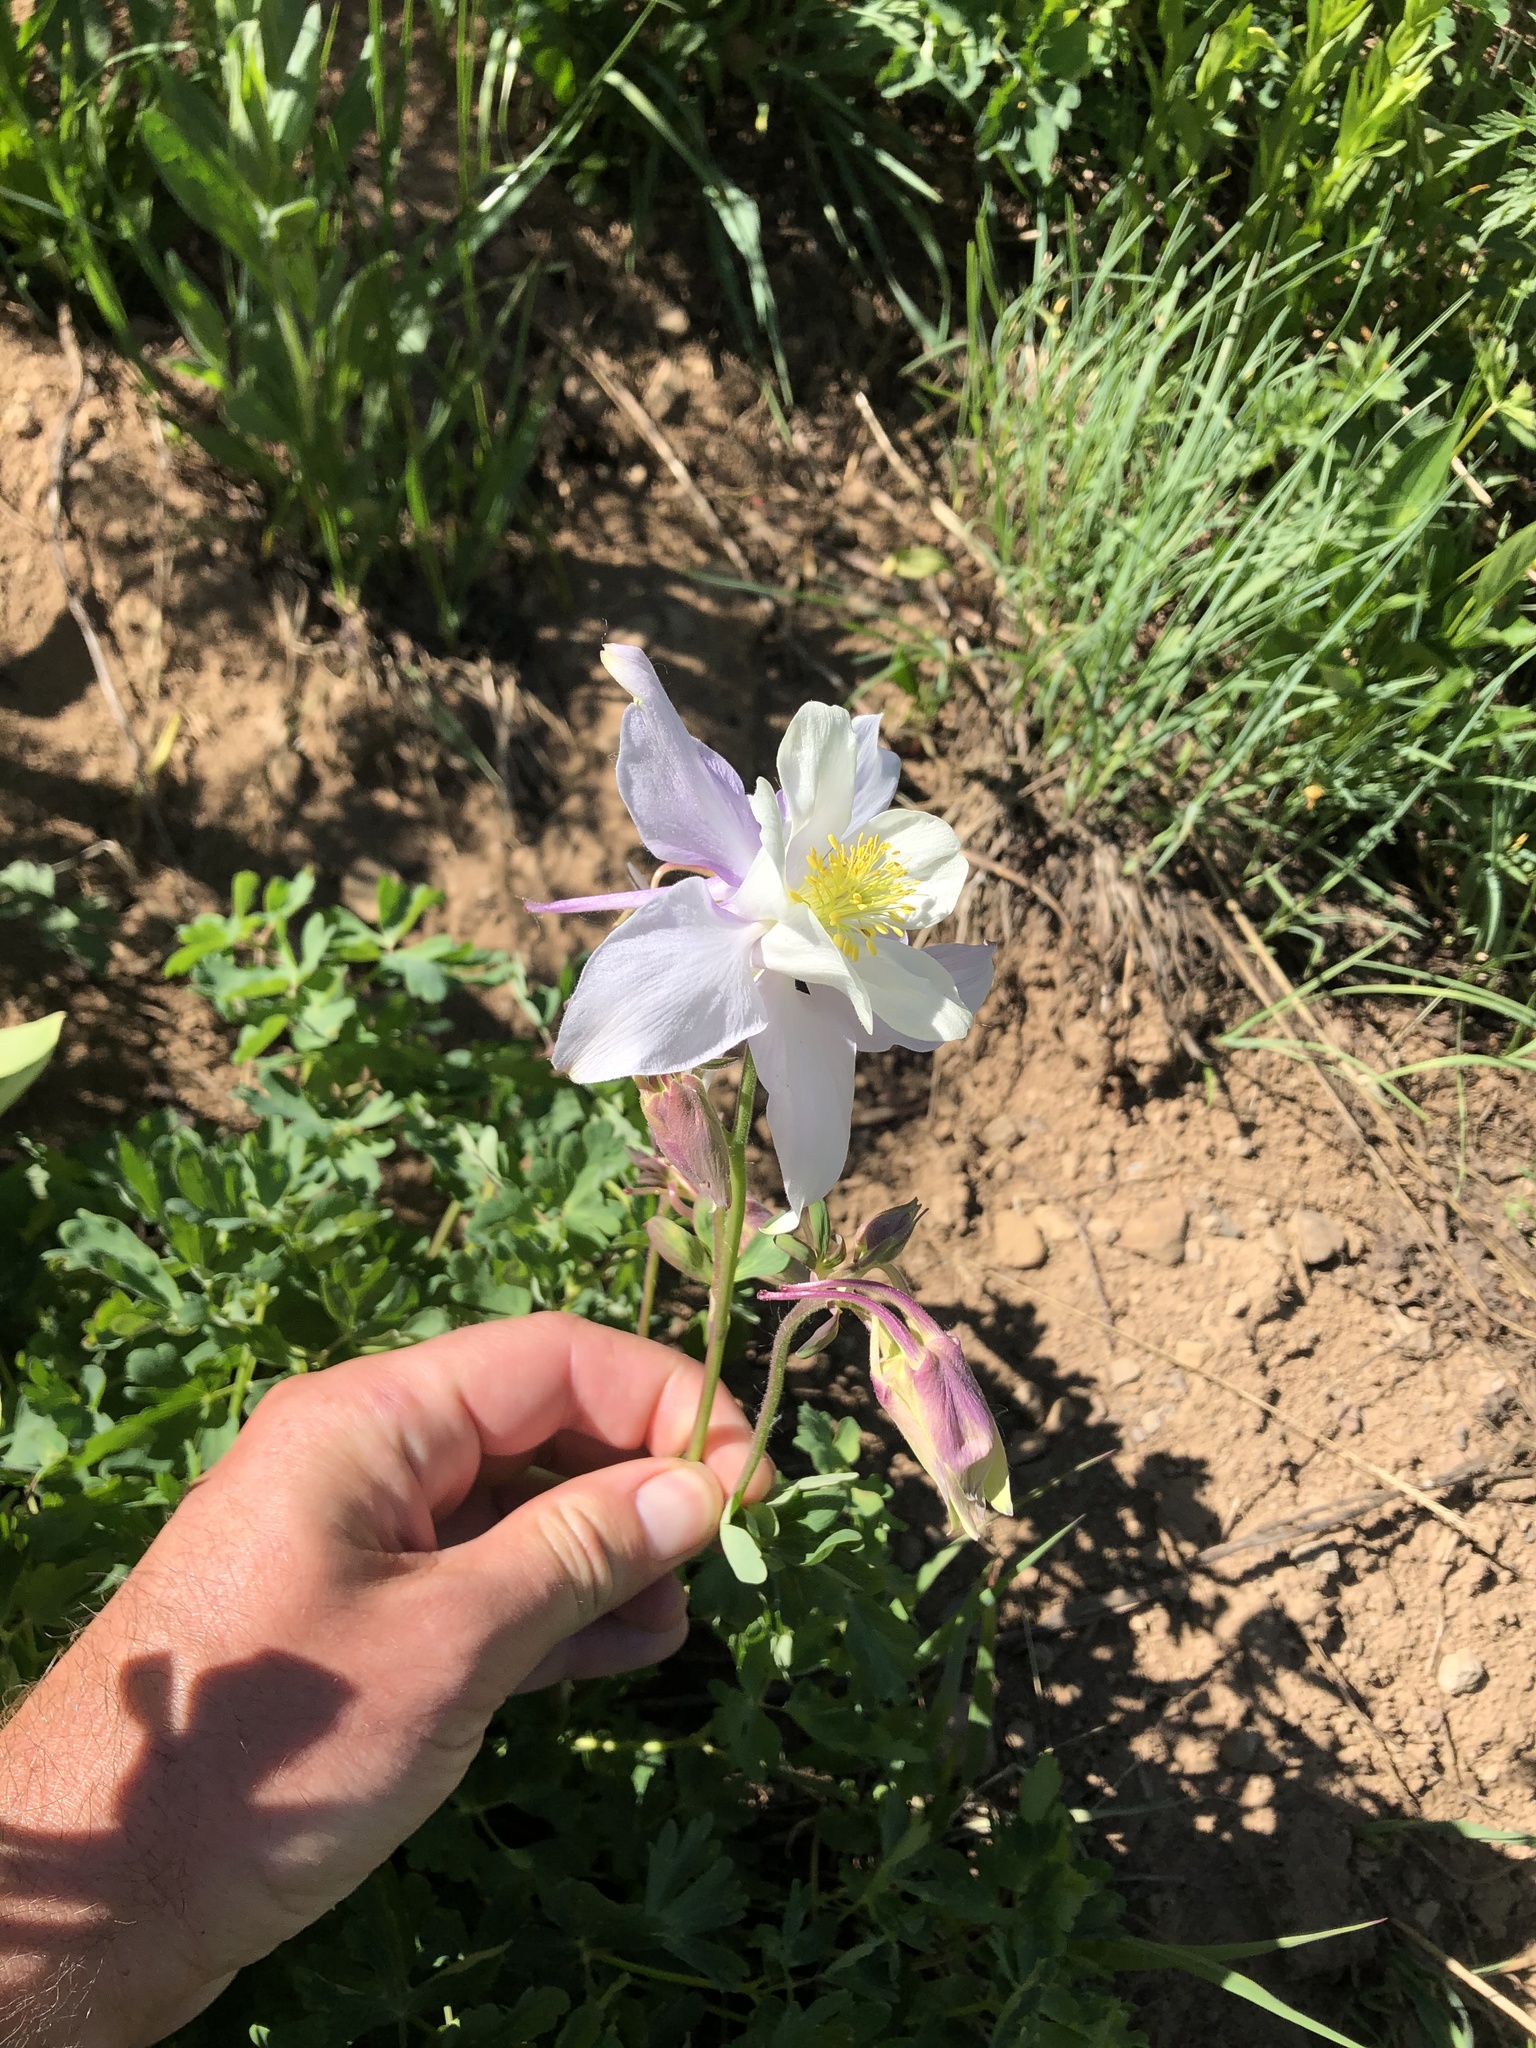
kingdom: Plantae
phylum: Tracheophyta
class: Magnoliopsida
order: Ranunculales
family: Ranunculaceae
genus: Aquilegia
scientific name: Aquilegia coerulea
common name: Rocky mountain columbine
